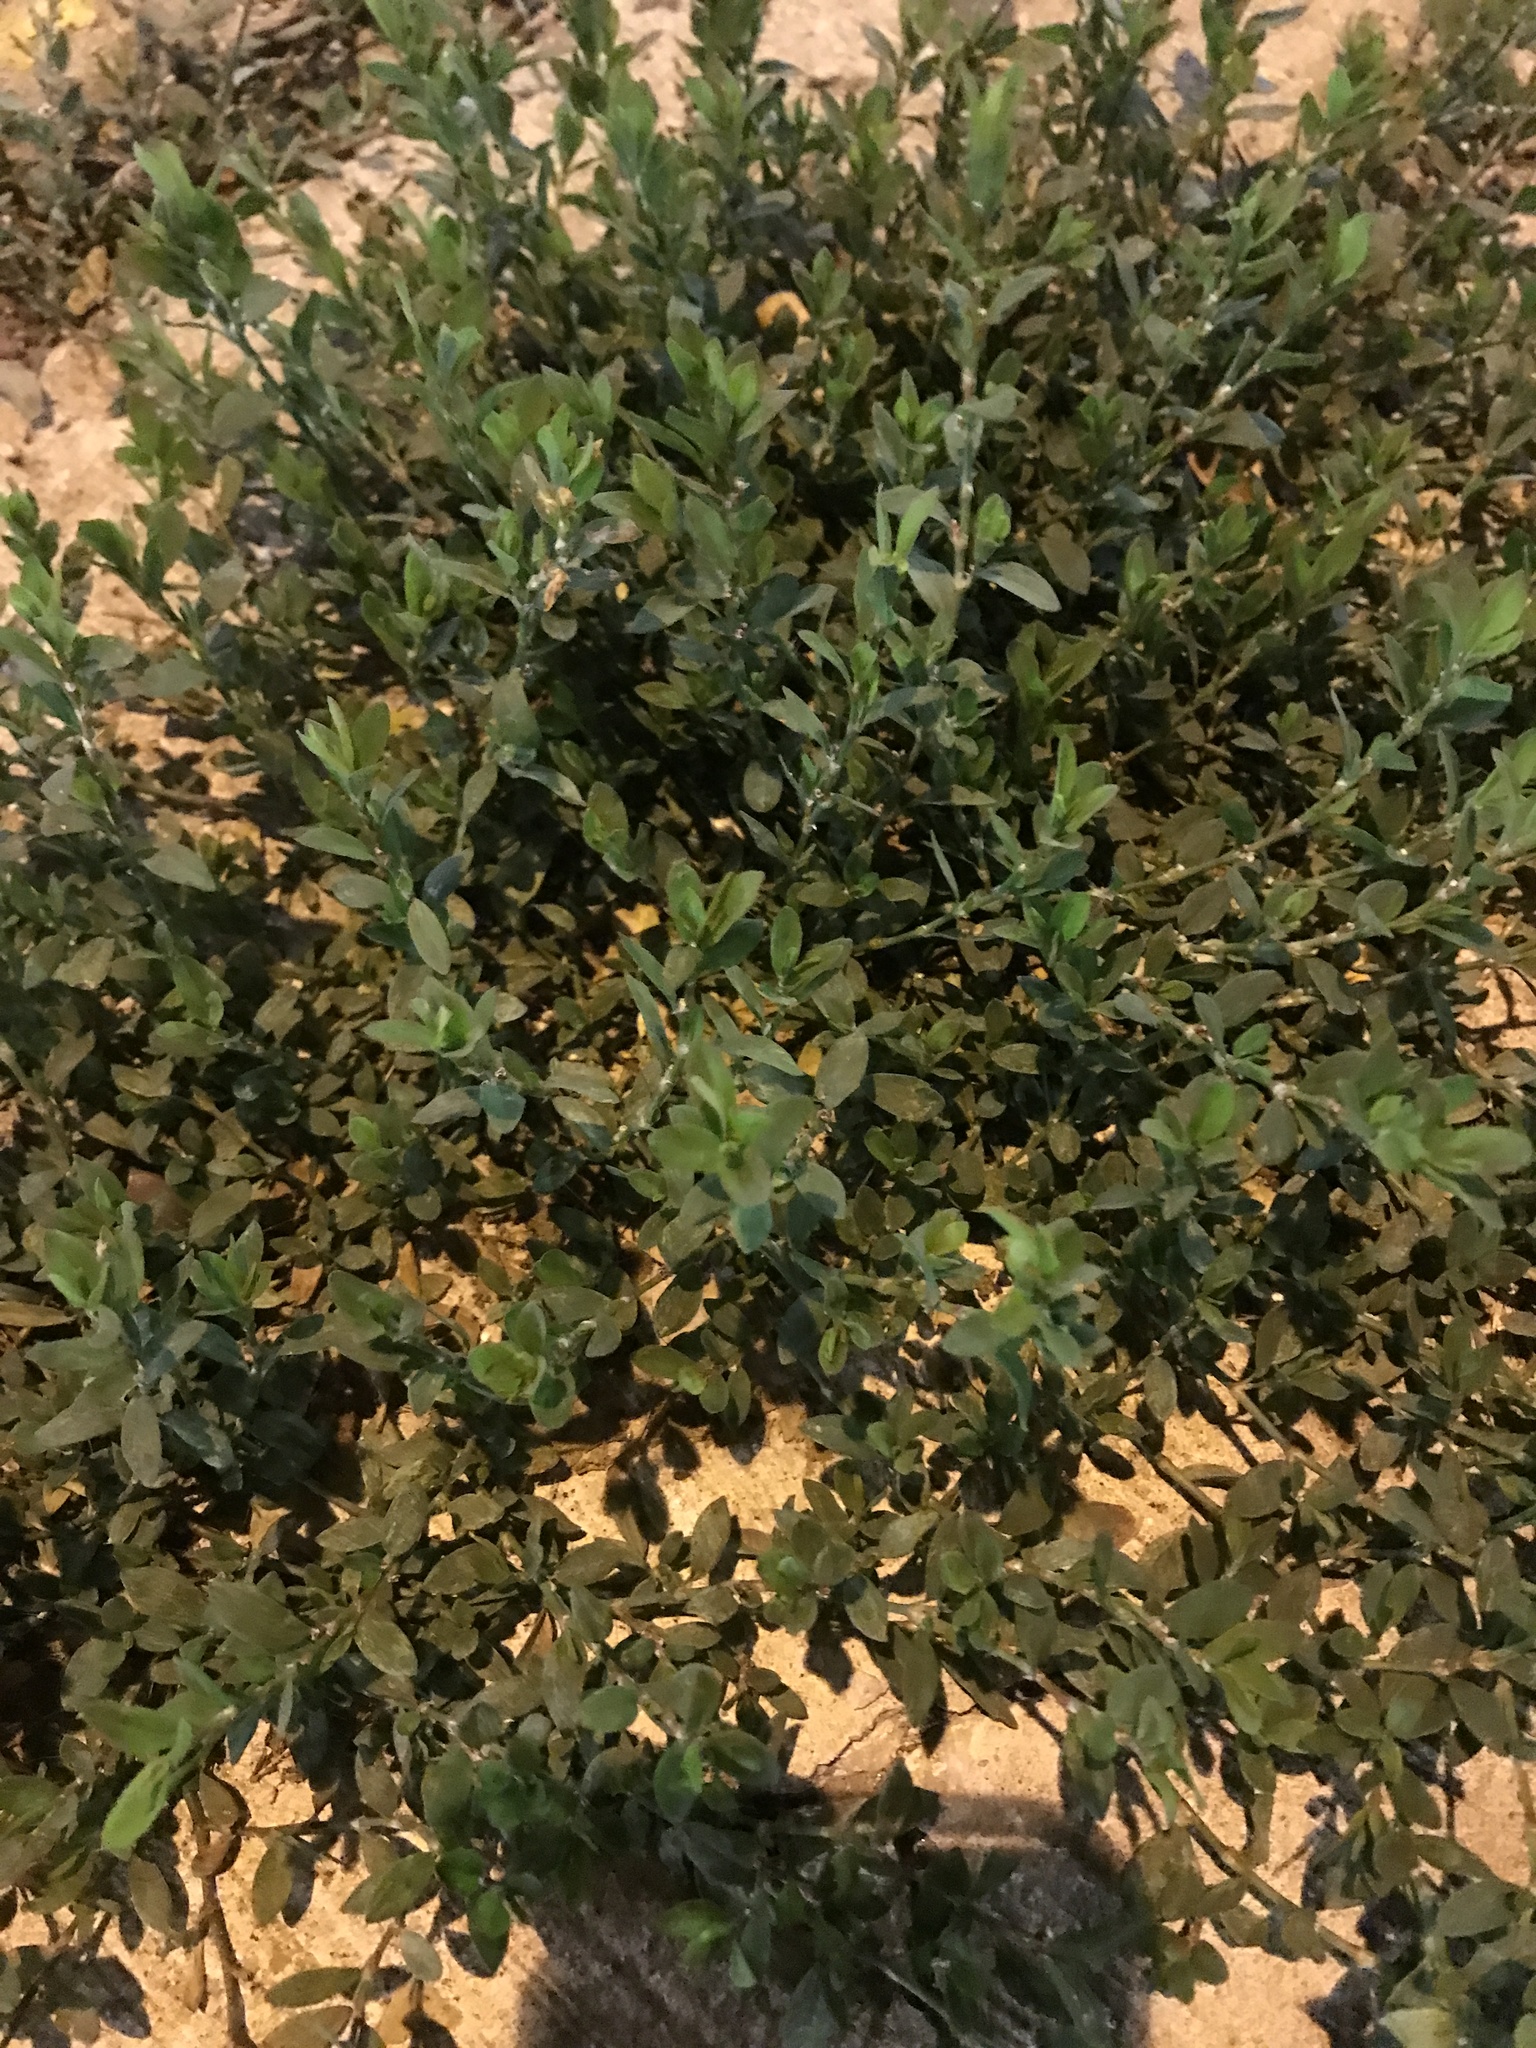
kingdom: Plantae
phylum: Tracheophyta
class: Magnoliopsida
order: Caryophyllales
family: Polygonaceae
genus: Polygonum
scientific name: Polygonum aviculare
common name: Prostrate knotweed
